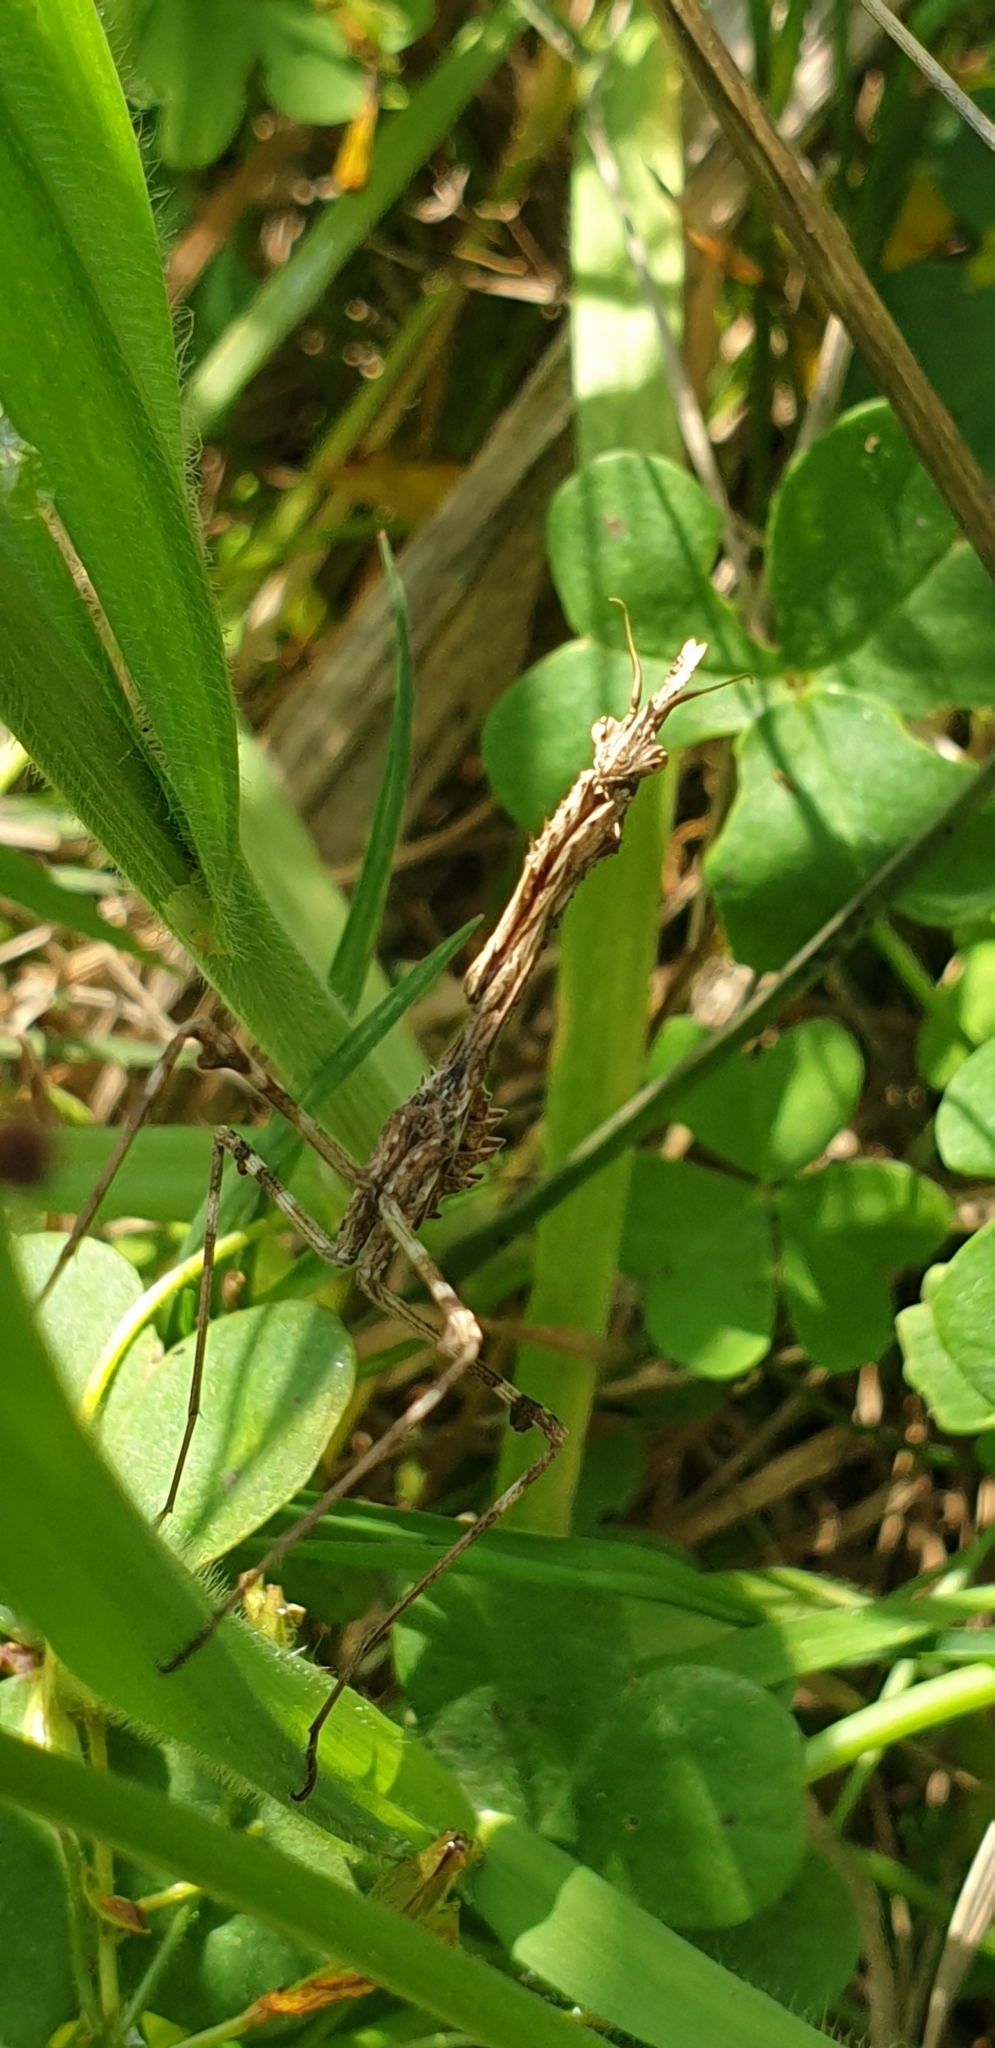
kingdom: Animalia
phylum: Arthropoda
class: Insecta
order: Mantodea
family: Empusidae
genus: Empusa
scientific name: Empusa pennata
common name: Conehead mantis
